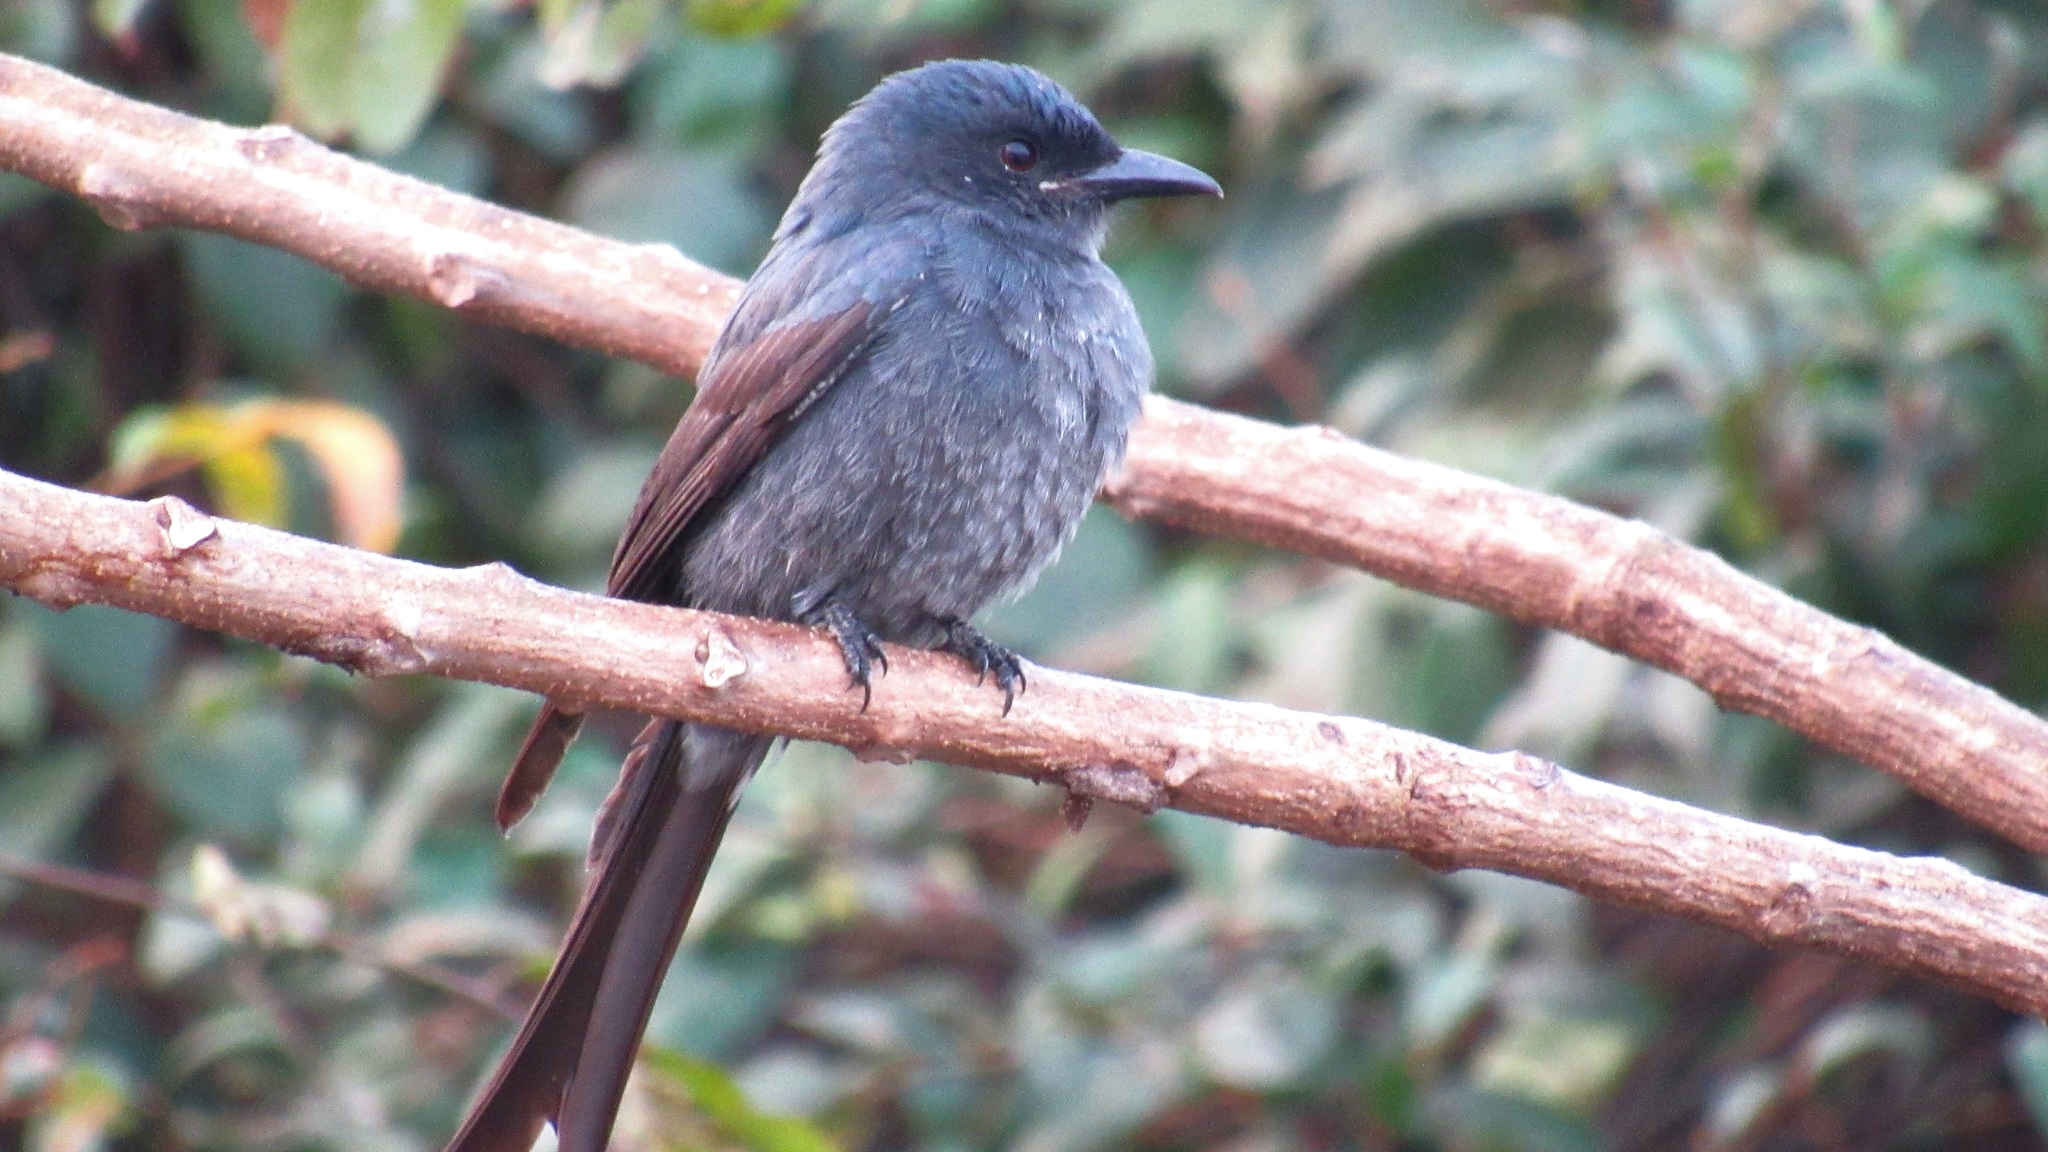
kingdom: Animalia
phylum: Chordata
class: Aves
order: Passeriformes
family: Dicruridae
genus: Dicrurus
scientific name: Dicrurus leucophaeus
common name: Ashy drongo
